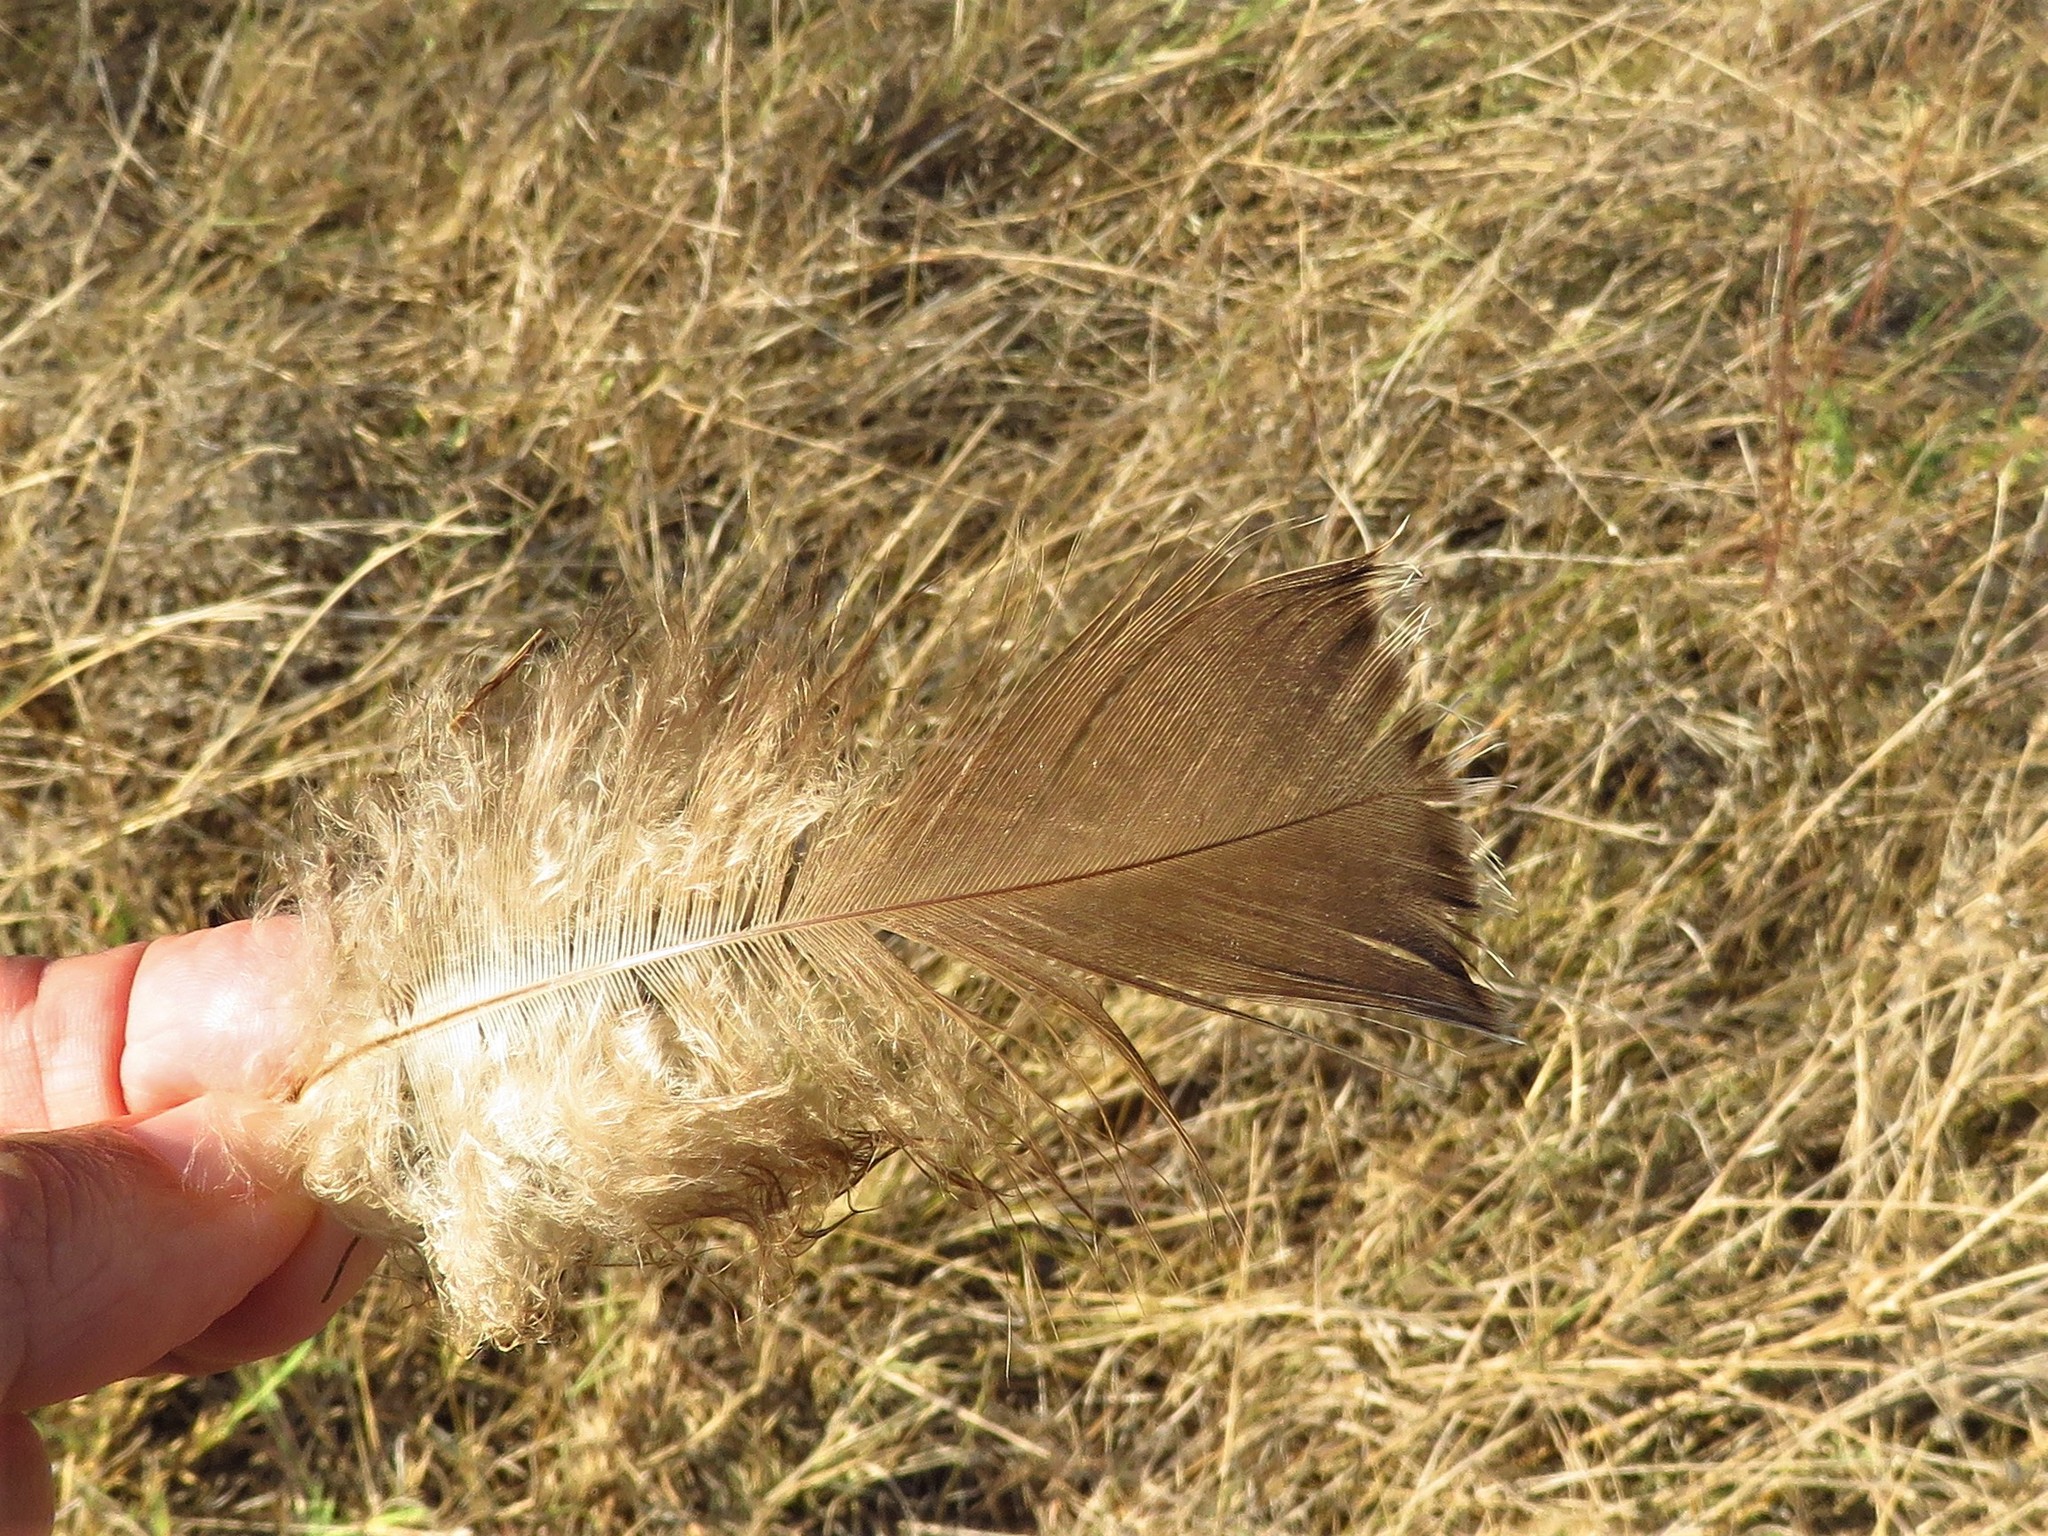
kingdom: Animalia
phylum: Chordata
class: Aves
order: Galliformes
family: Phasianidae
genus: Meleagris
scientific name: Meleagris gallopavo
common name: Wild turkey
